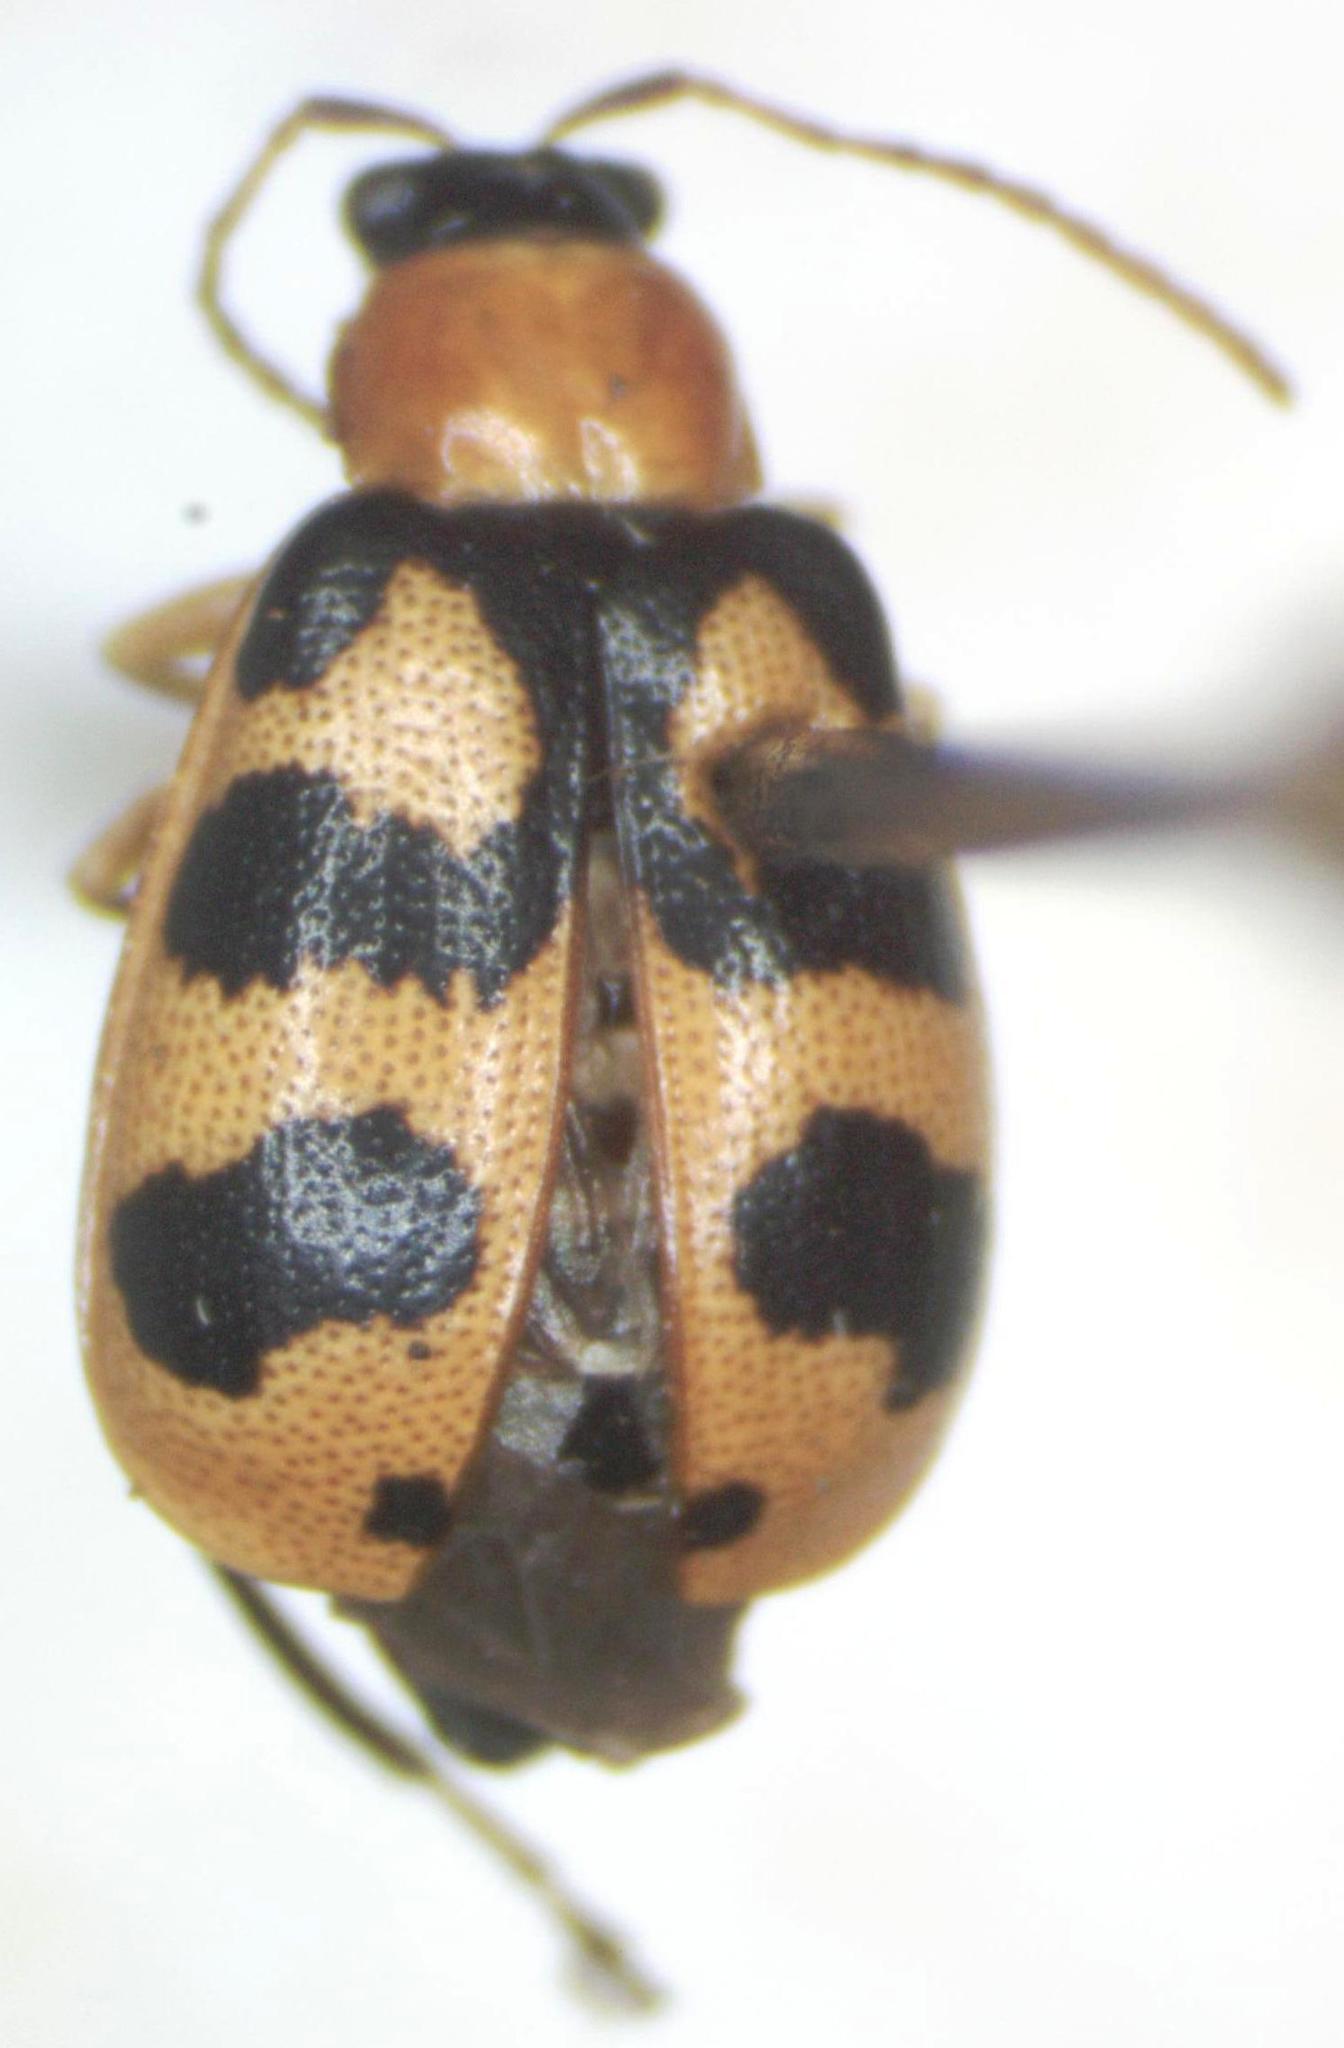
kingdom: Animalia
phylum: Arthropoda
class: Insecta
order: Coleoptera
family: Chrysomelidae
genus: Cerotoma
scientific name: Cerotoma atrofasciata
